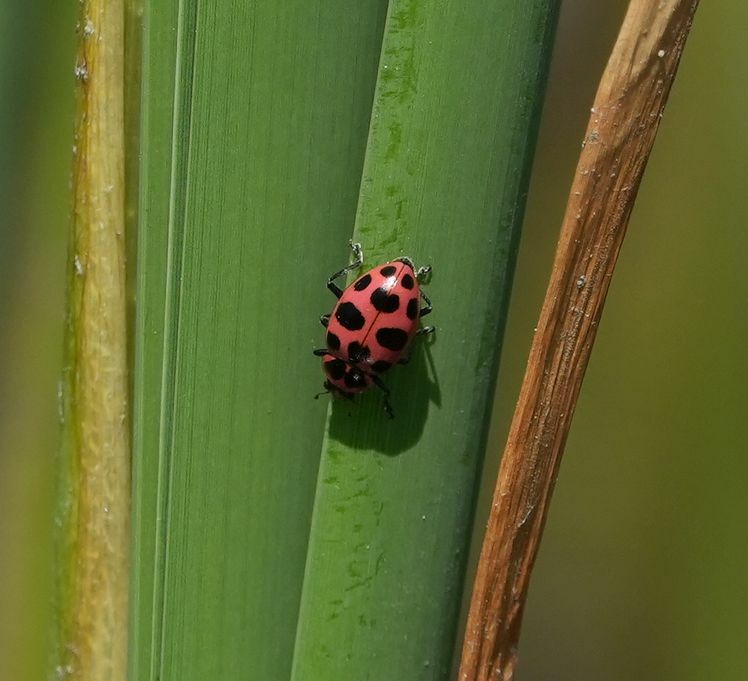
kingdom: Animalia
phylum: Arthropoda
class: Insecta
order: Coleoptera
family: Coccinellidae
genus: Coleomegilla
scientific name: Coleomegilla maculata
